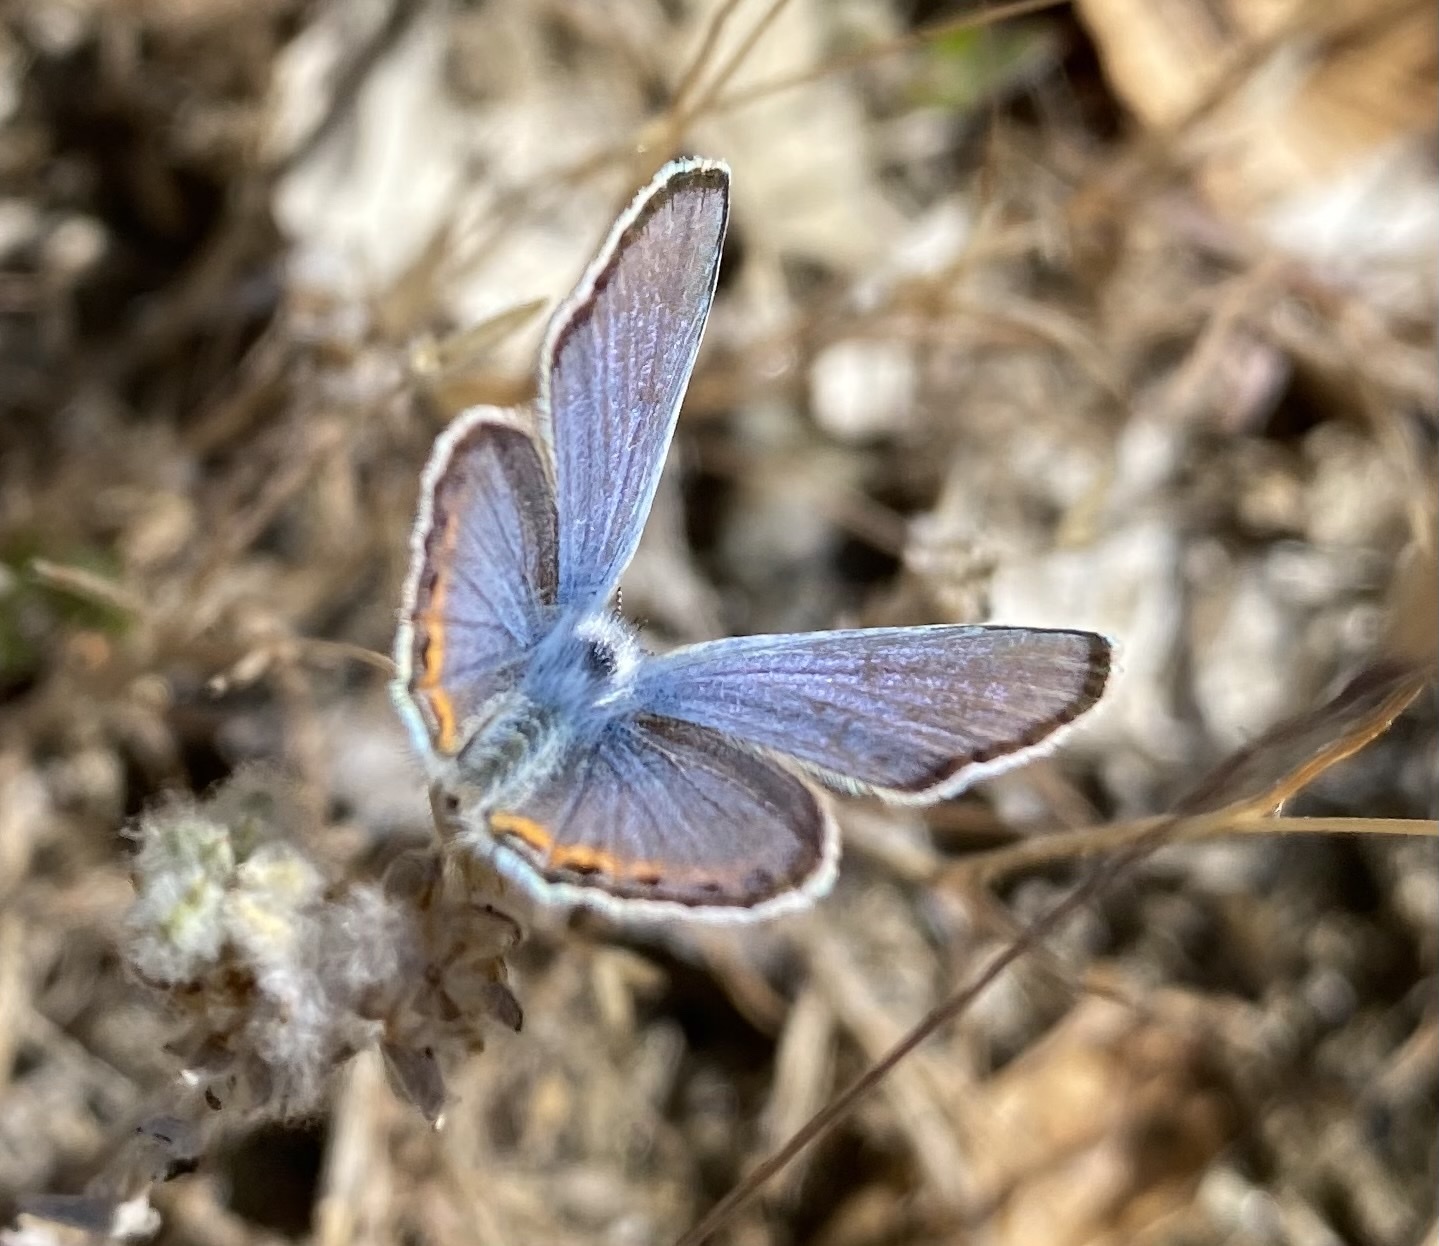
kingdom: Animalia
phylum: Arthropoda
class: Insecta
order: Lepidoptera
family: Lycaenidae
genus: Icaricia
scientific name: Icaricia acmon
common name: Acmon blue
